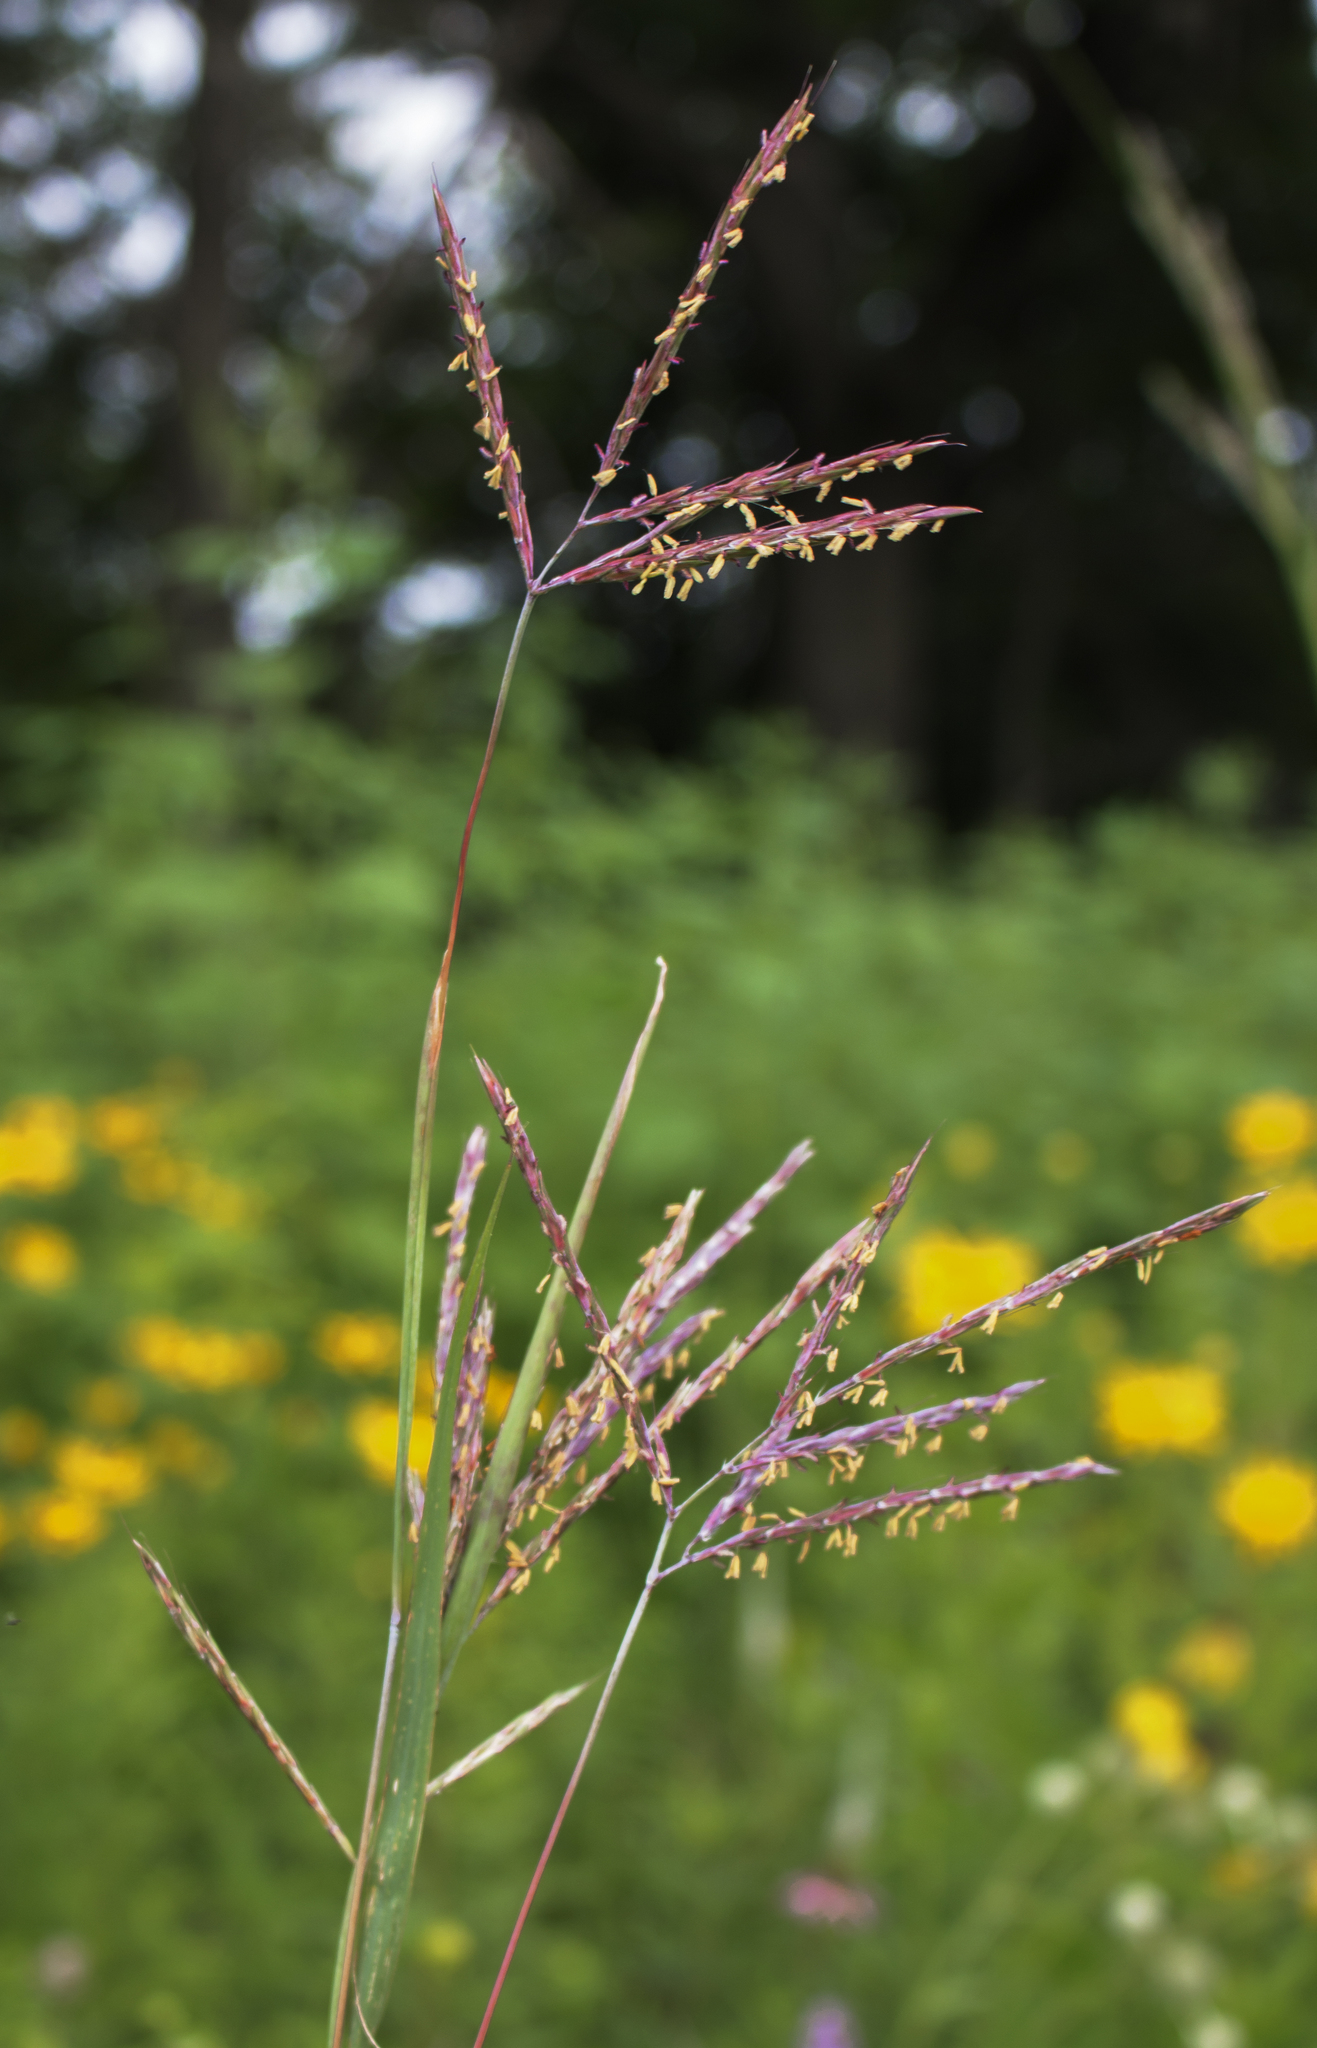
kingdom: Plantae
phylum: Tracheophyta
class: Liliopsida
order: Poales
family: Poaceae
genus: Andropogon
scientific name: Andropogon gerardi
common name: Big bluestem
